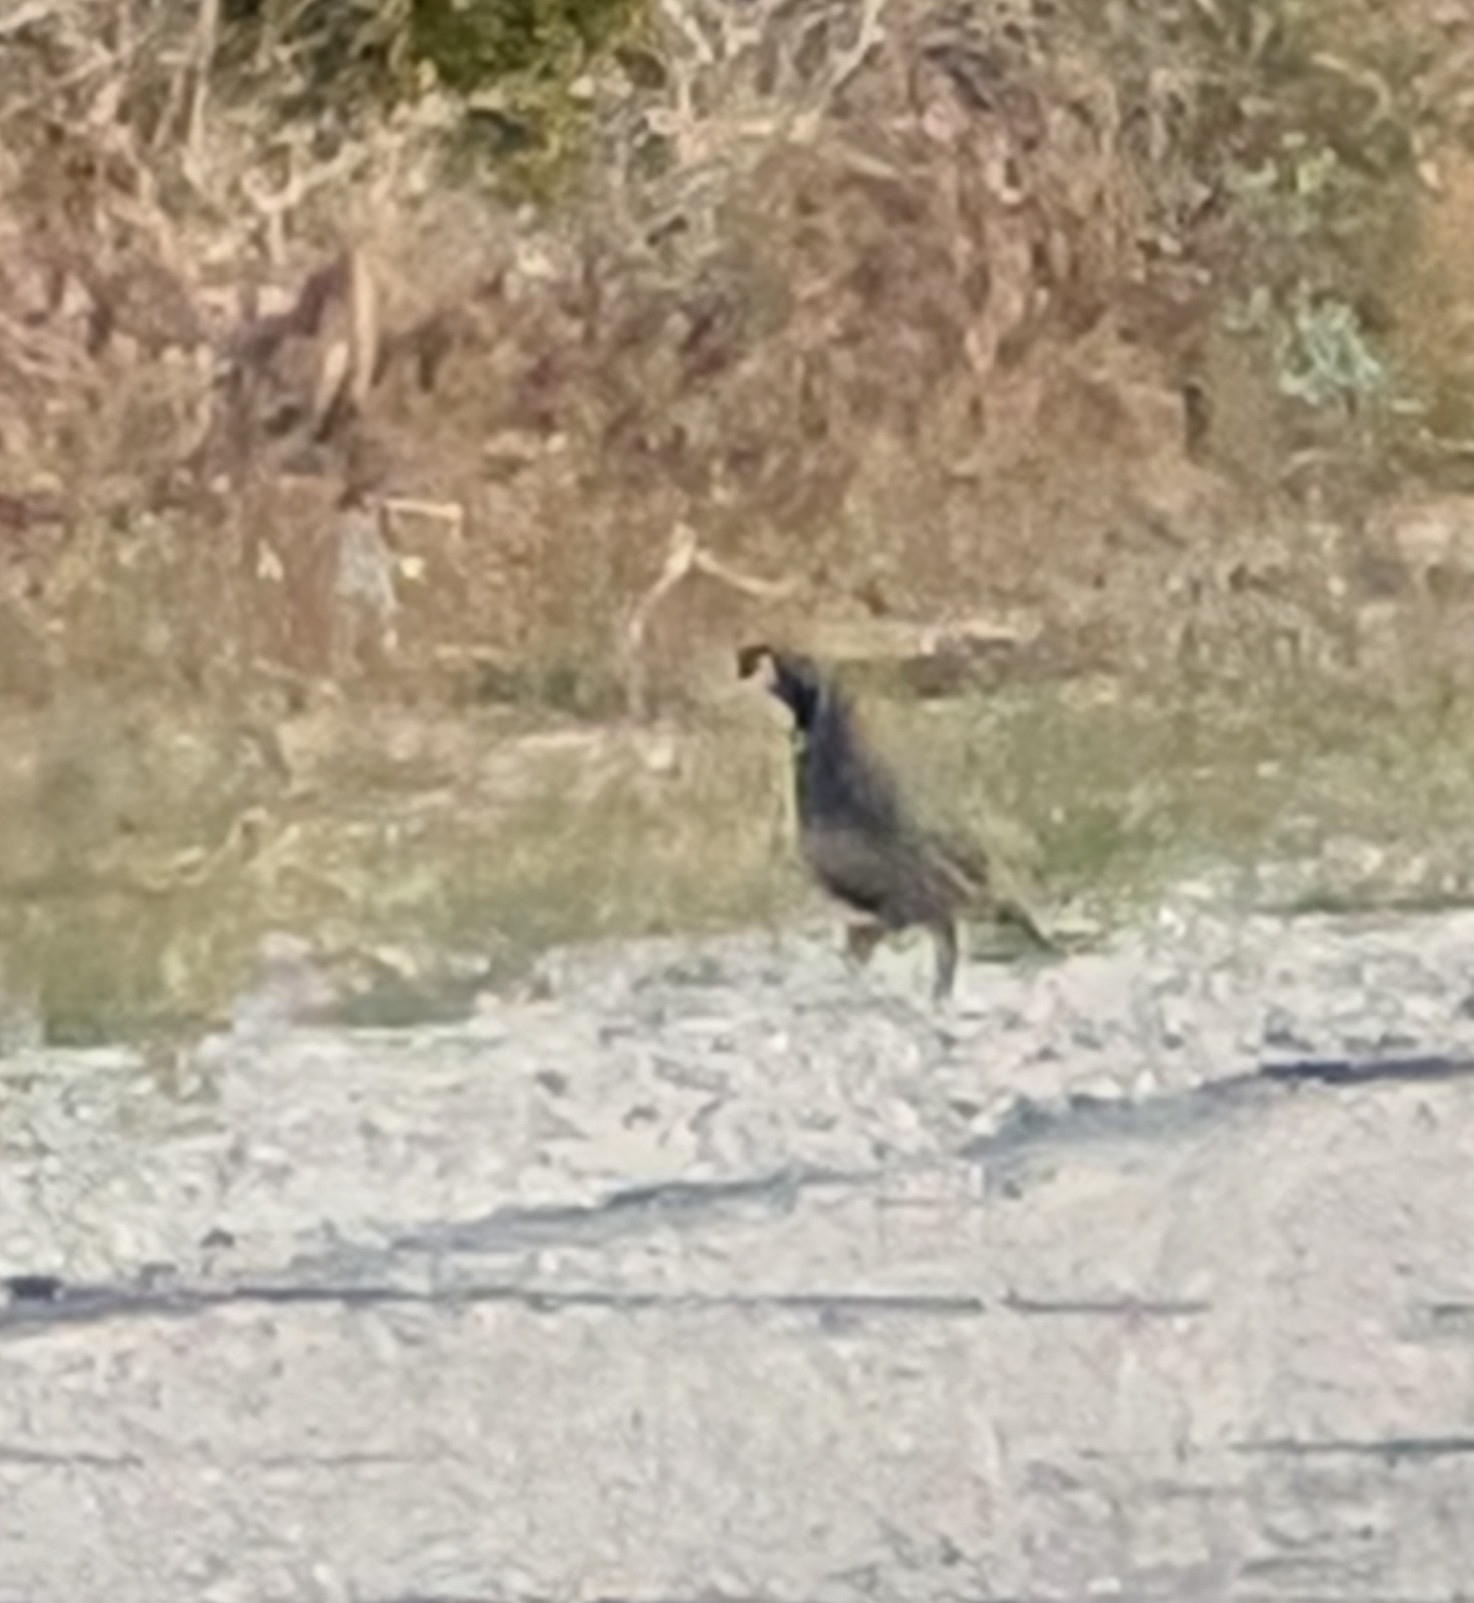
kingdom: Animalia
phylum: Chordata
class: Aves
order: Galliformes
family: Odontophoridae
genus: Callipepla
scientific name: Callipepla californica
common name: California quail
